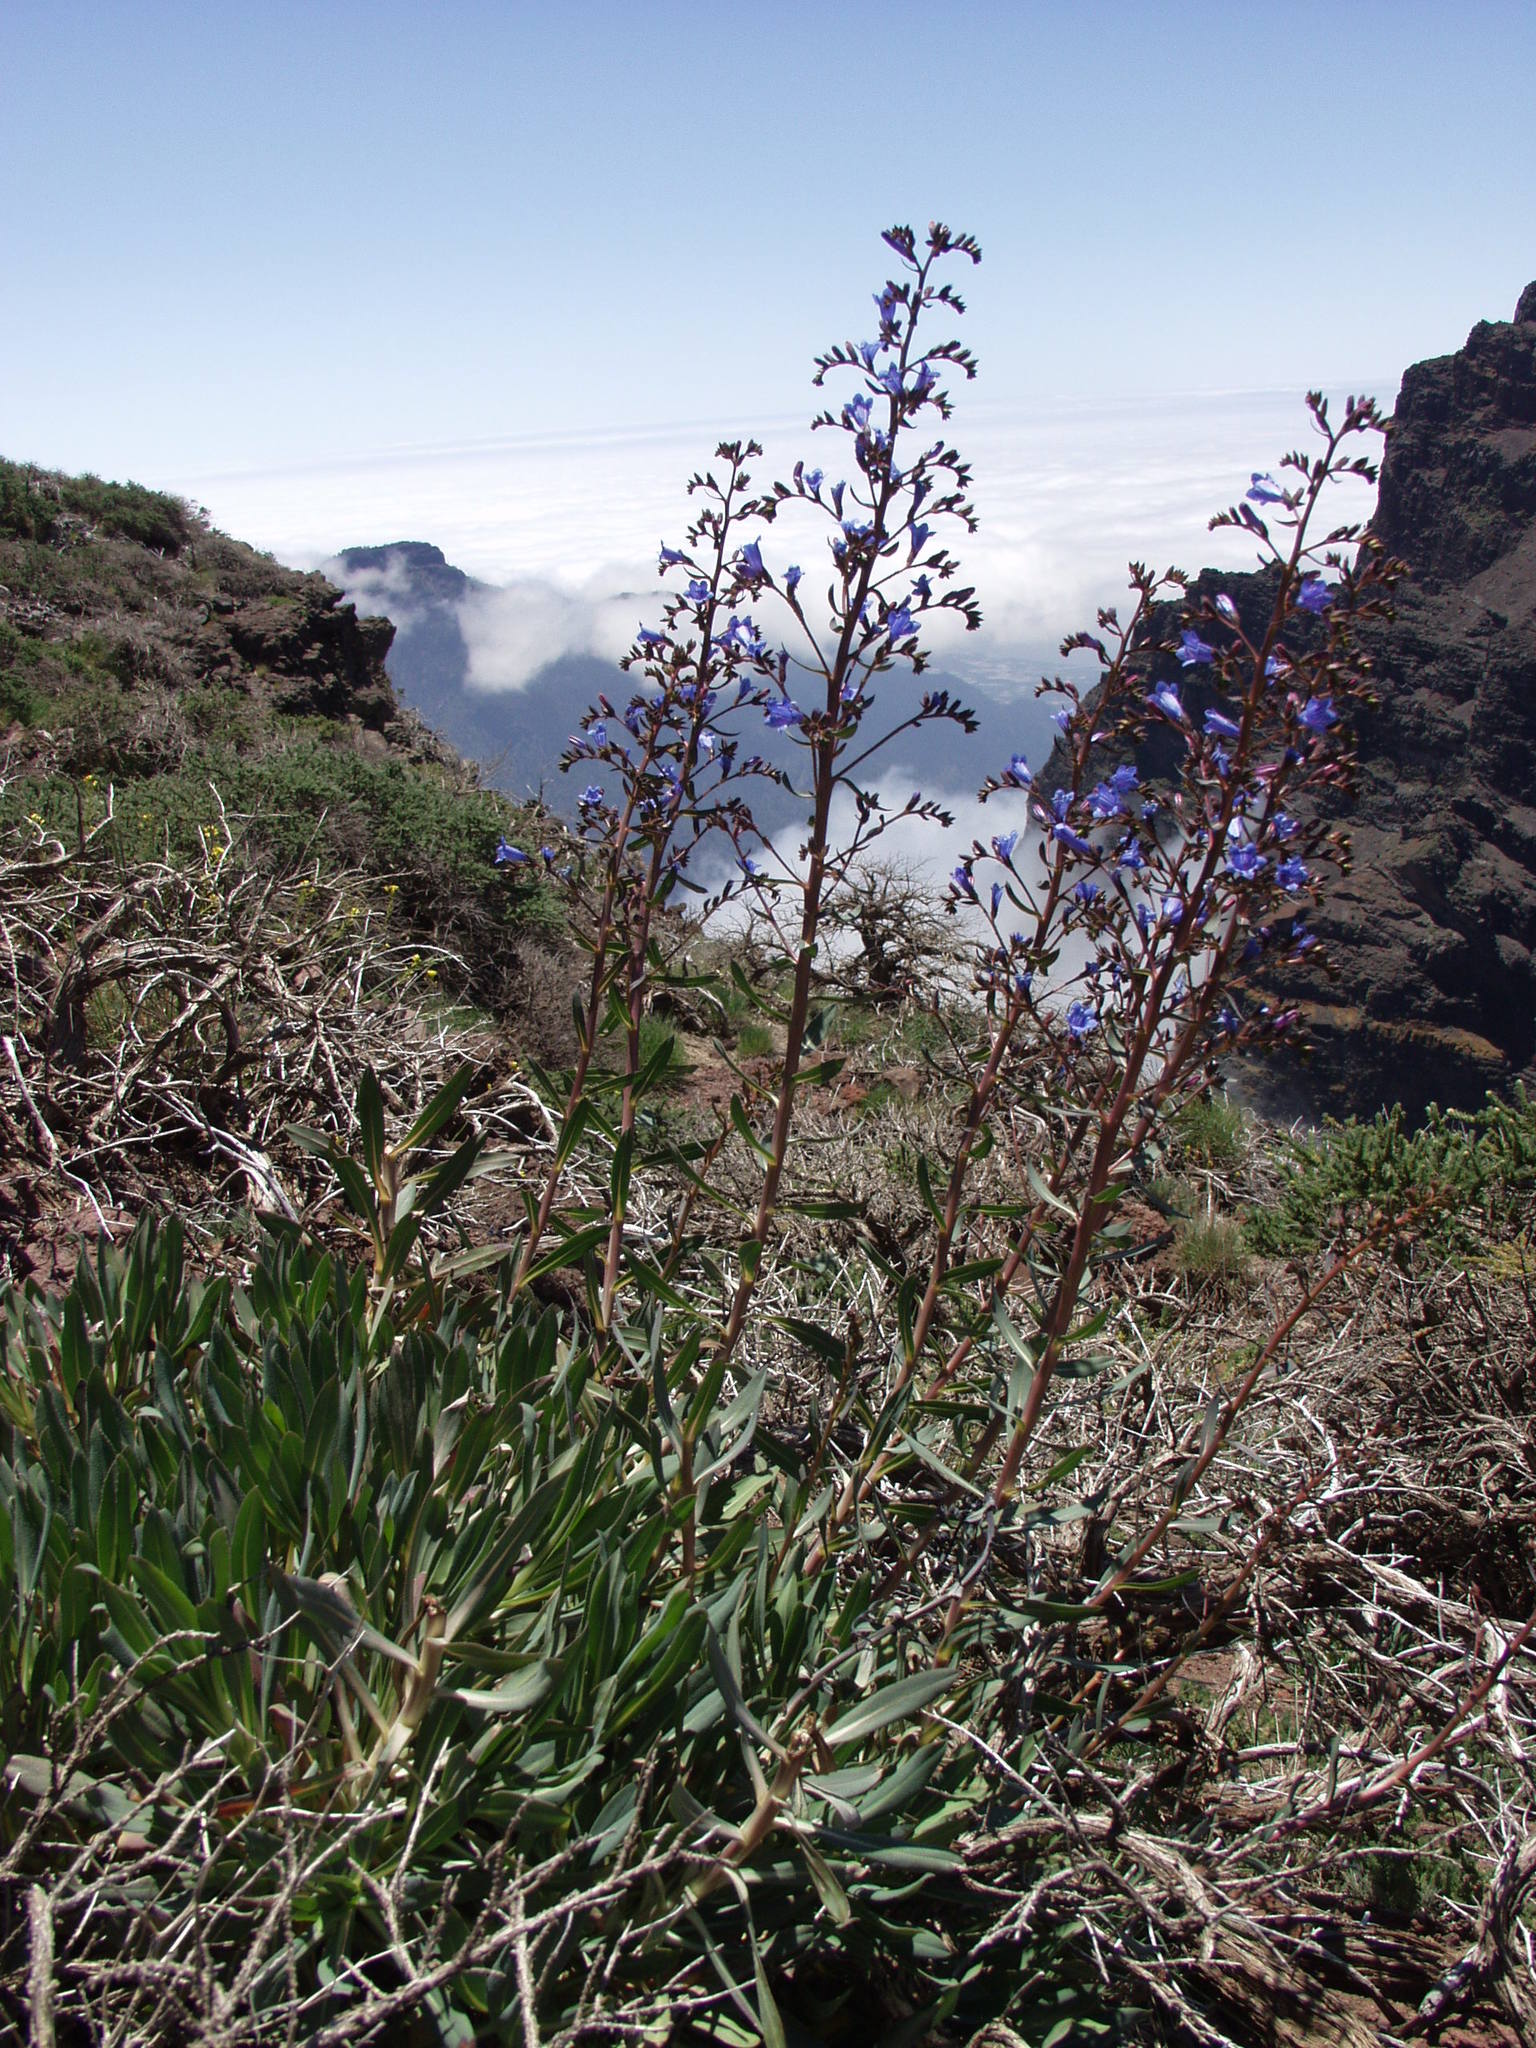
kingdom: Plantae
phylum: Tracheophyta
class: Magnoliopsida
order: Boraginales
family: Boraginaceae
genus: Echium
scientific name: Echium thyrsiflorum
